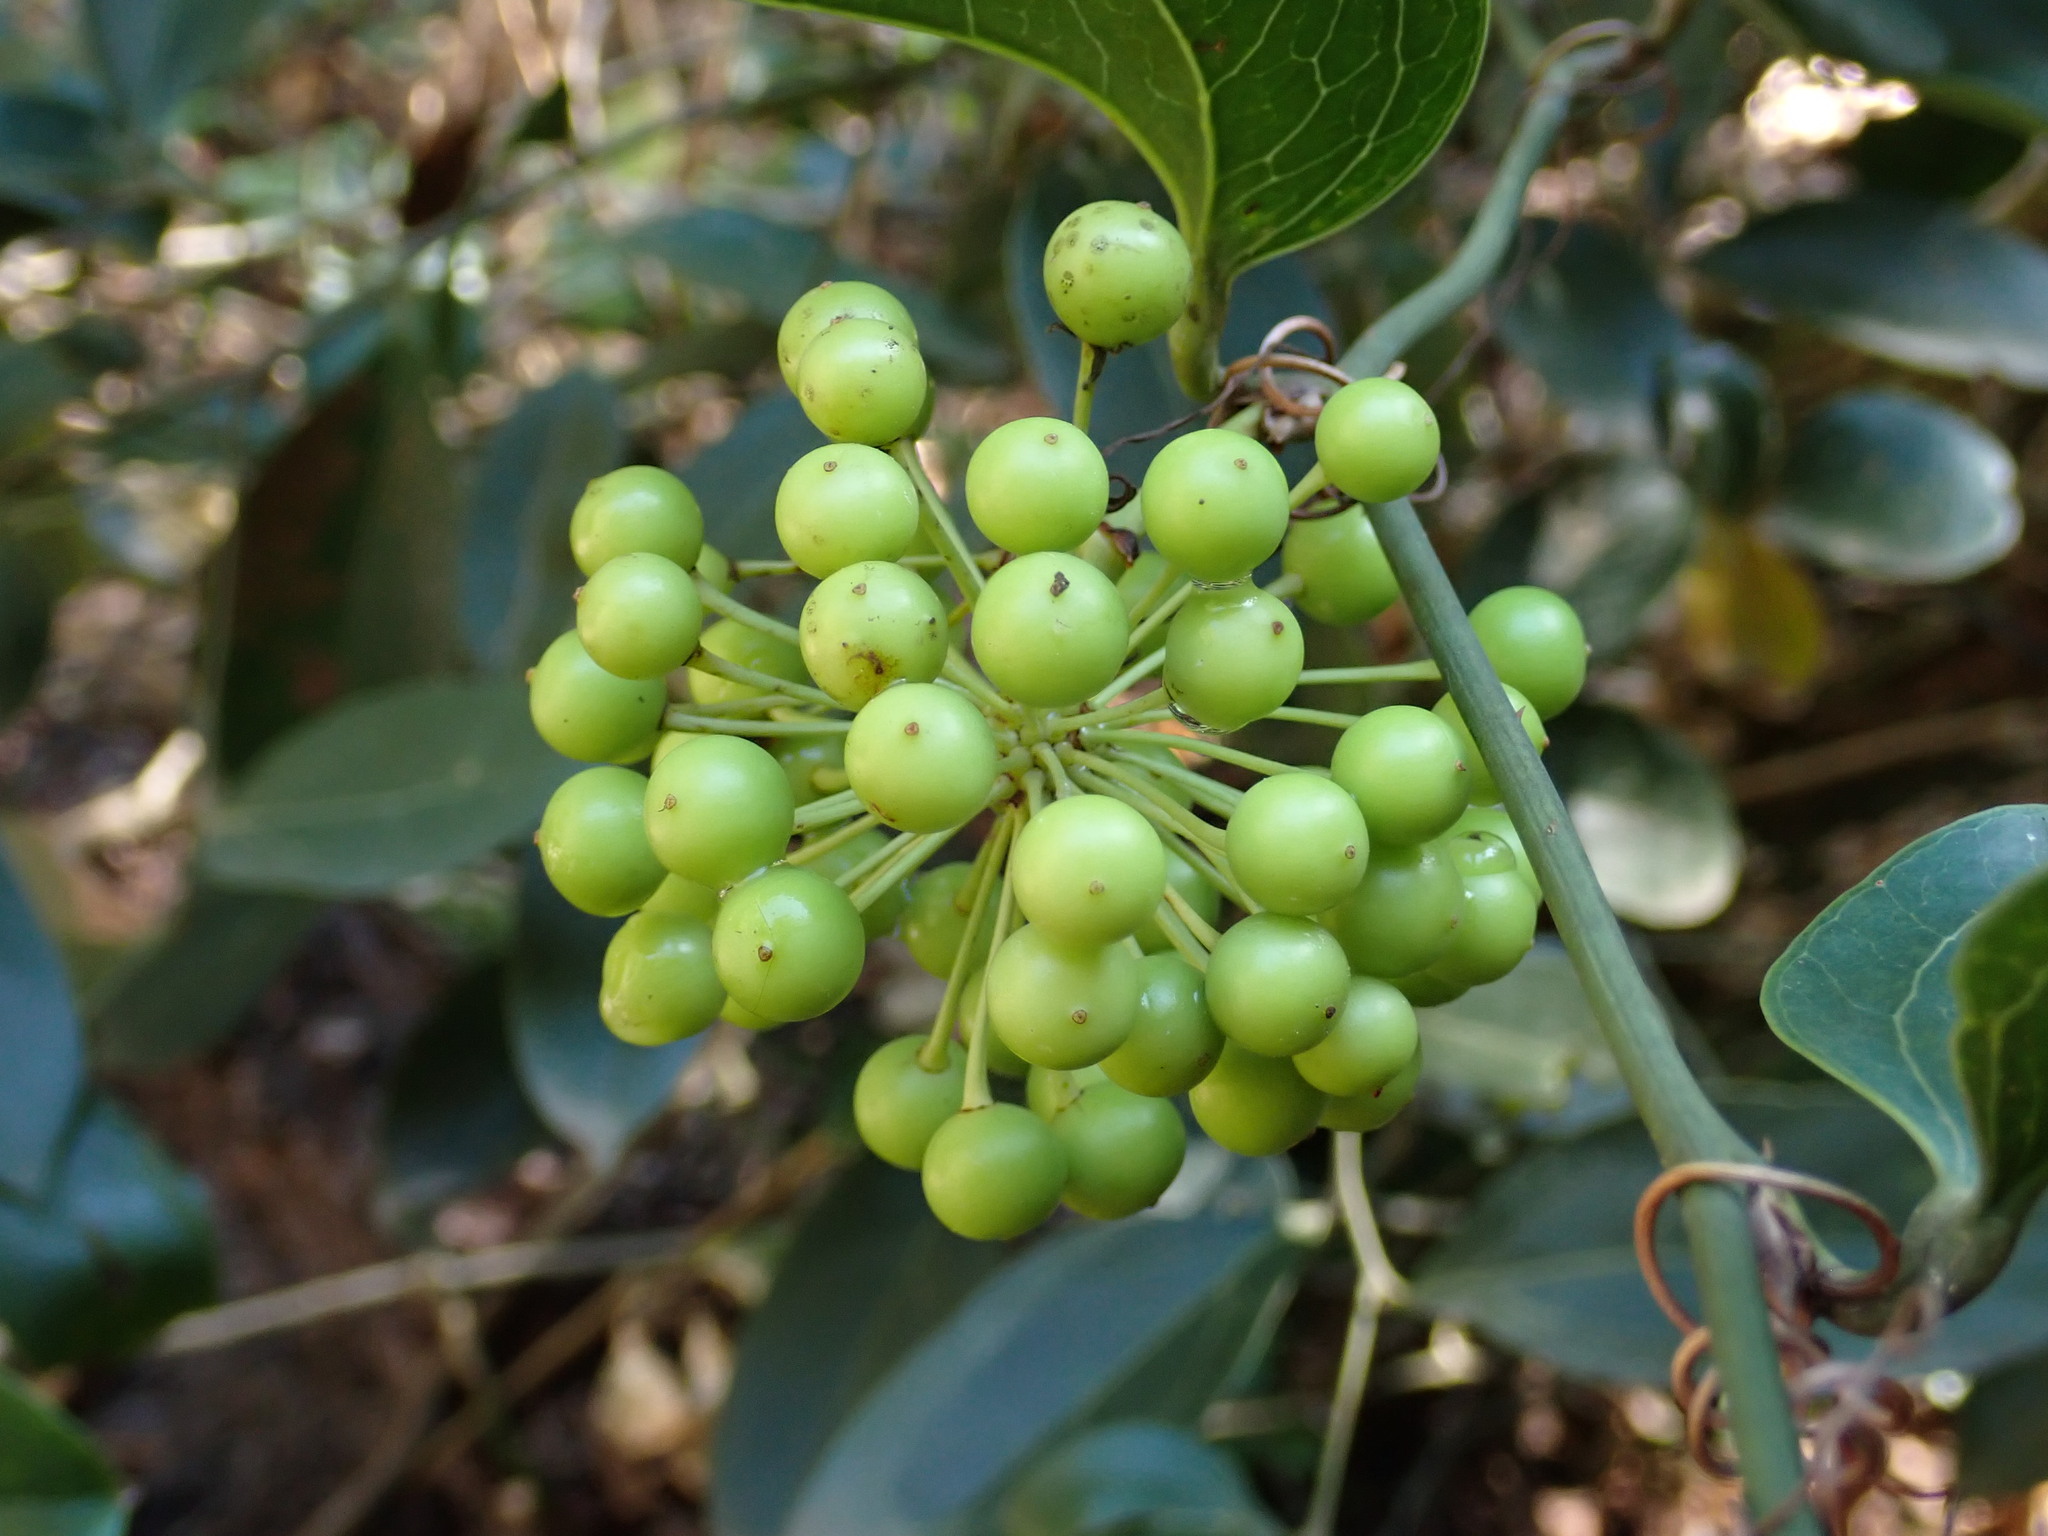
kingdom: Plantae
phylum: Tracheophyta
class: Liliopsida
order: Liliales
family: Smilacaceae
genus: Smilax
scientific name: Smilax australis
